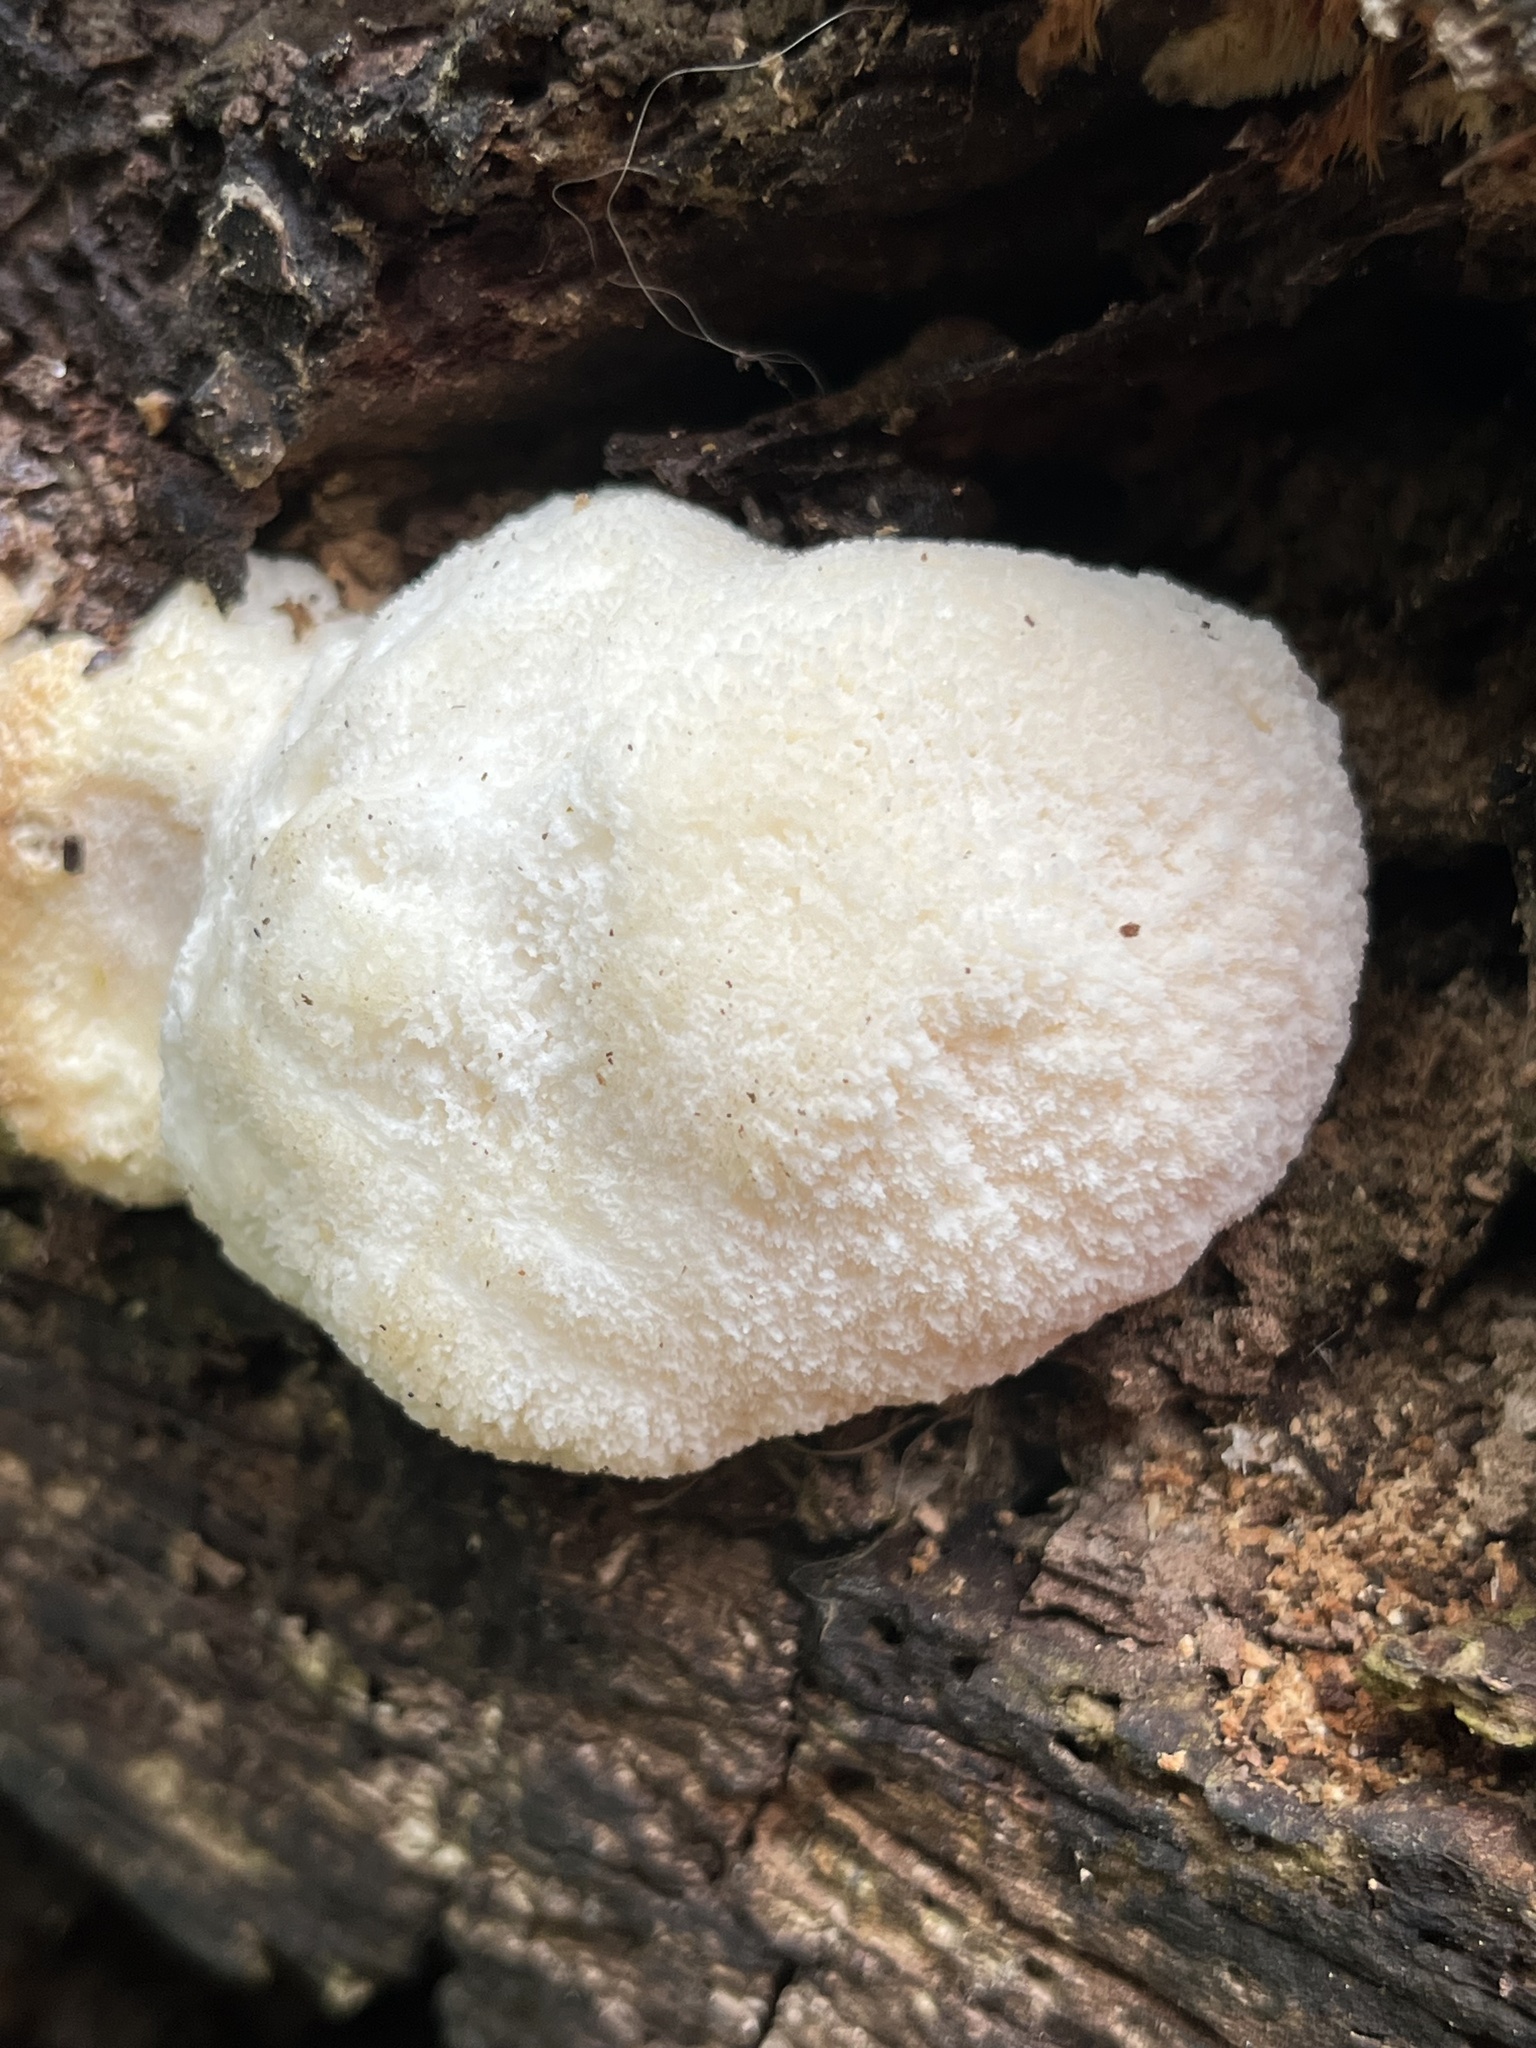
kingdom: Fungi
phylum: Basidiomycota
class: Agaricomycetes
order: Russulales
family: Hericiaceae
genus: Hericium
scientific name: Hericium erinaceus
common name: Bearded tooth
